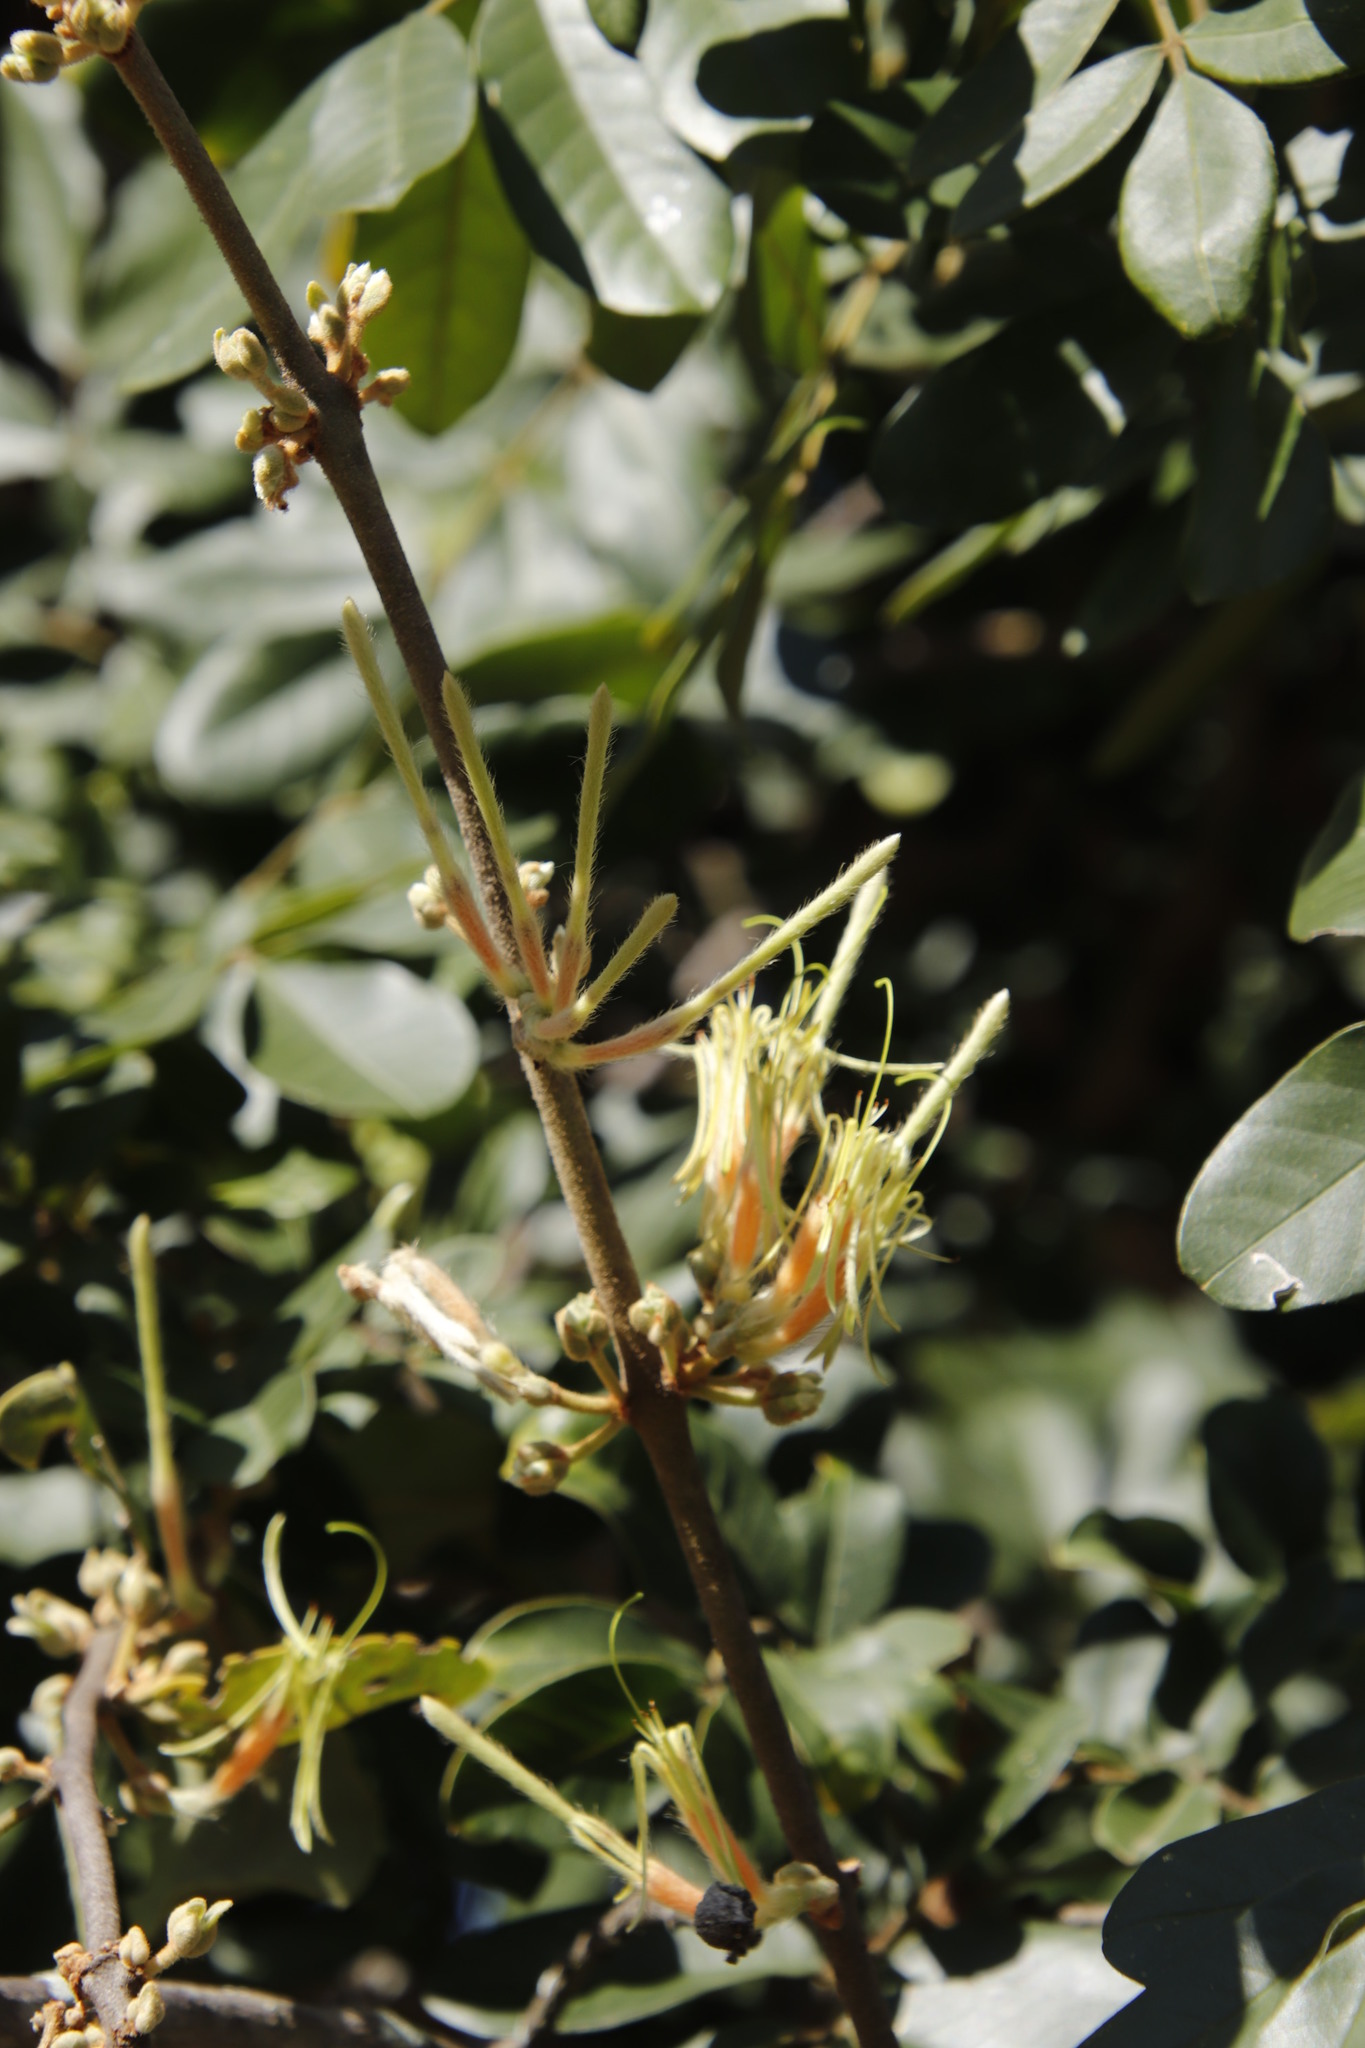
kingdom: Plantae
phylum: Tracheophyta
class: Magnoliopsida
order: Santalales
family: Loranthaceae
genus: Erianthemum
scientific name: Erianthemum dregei
